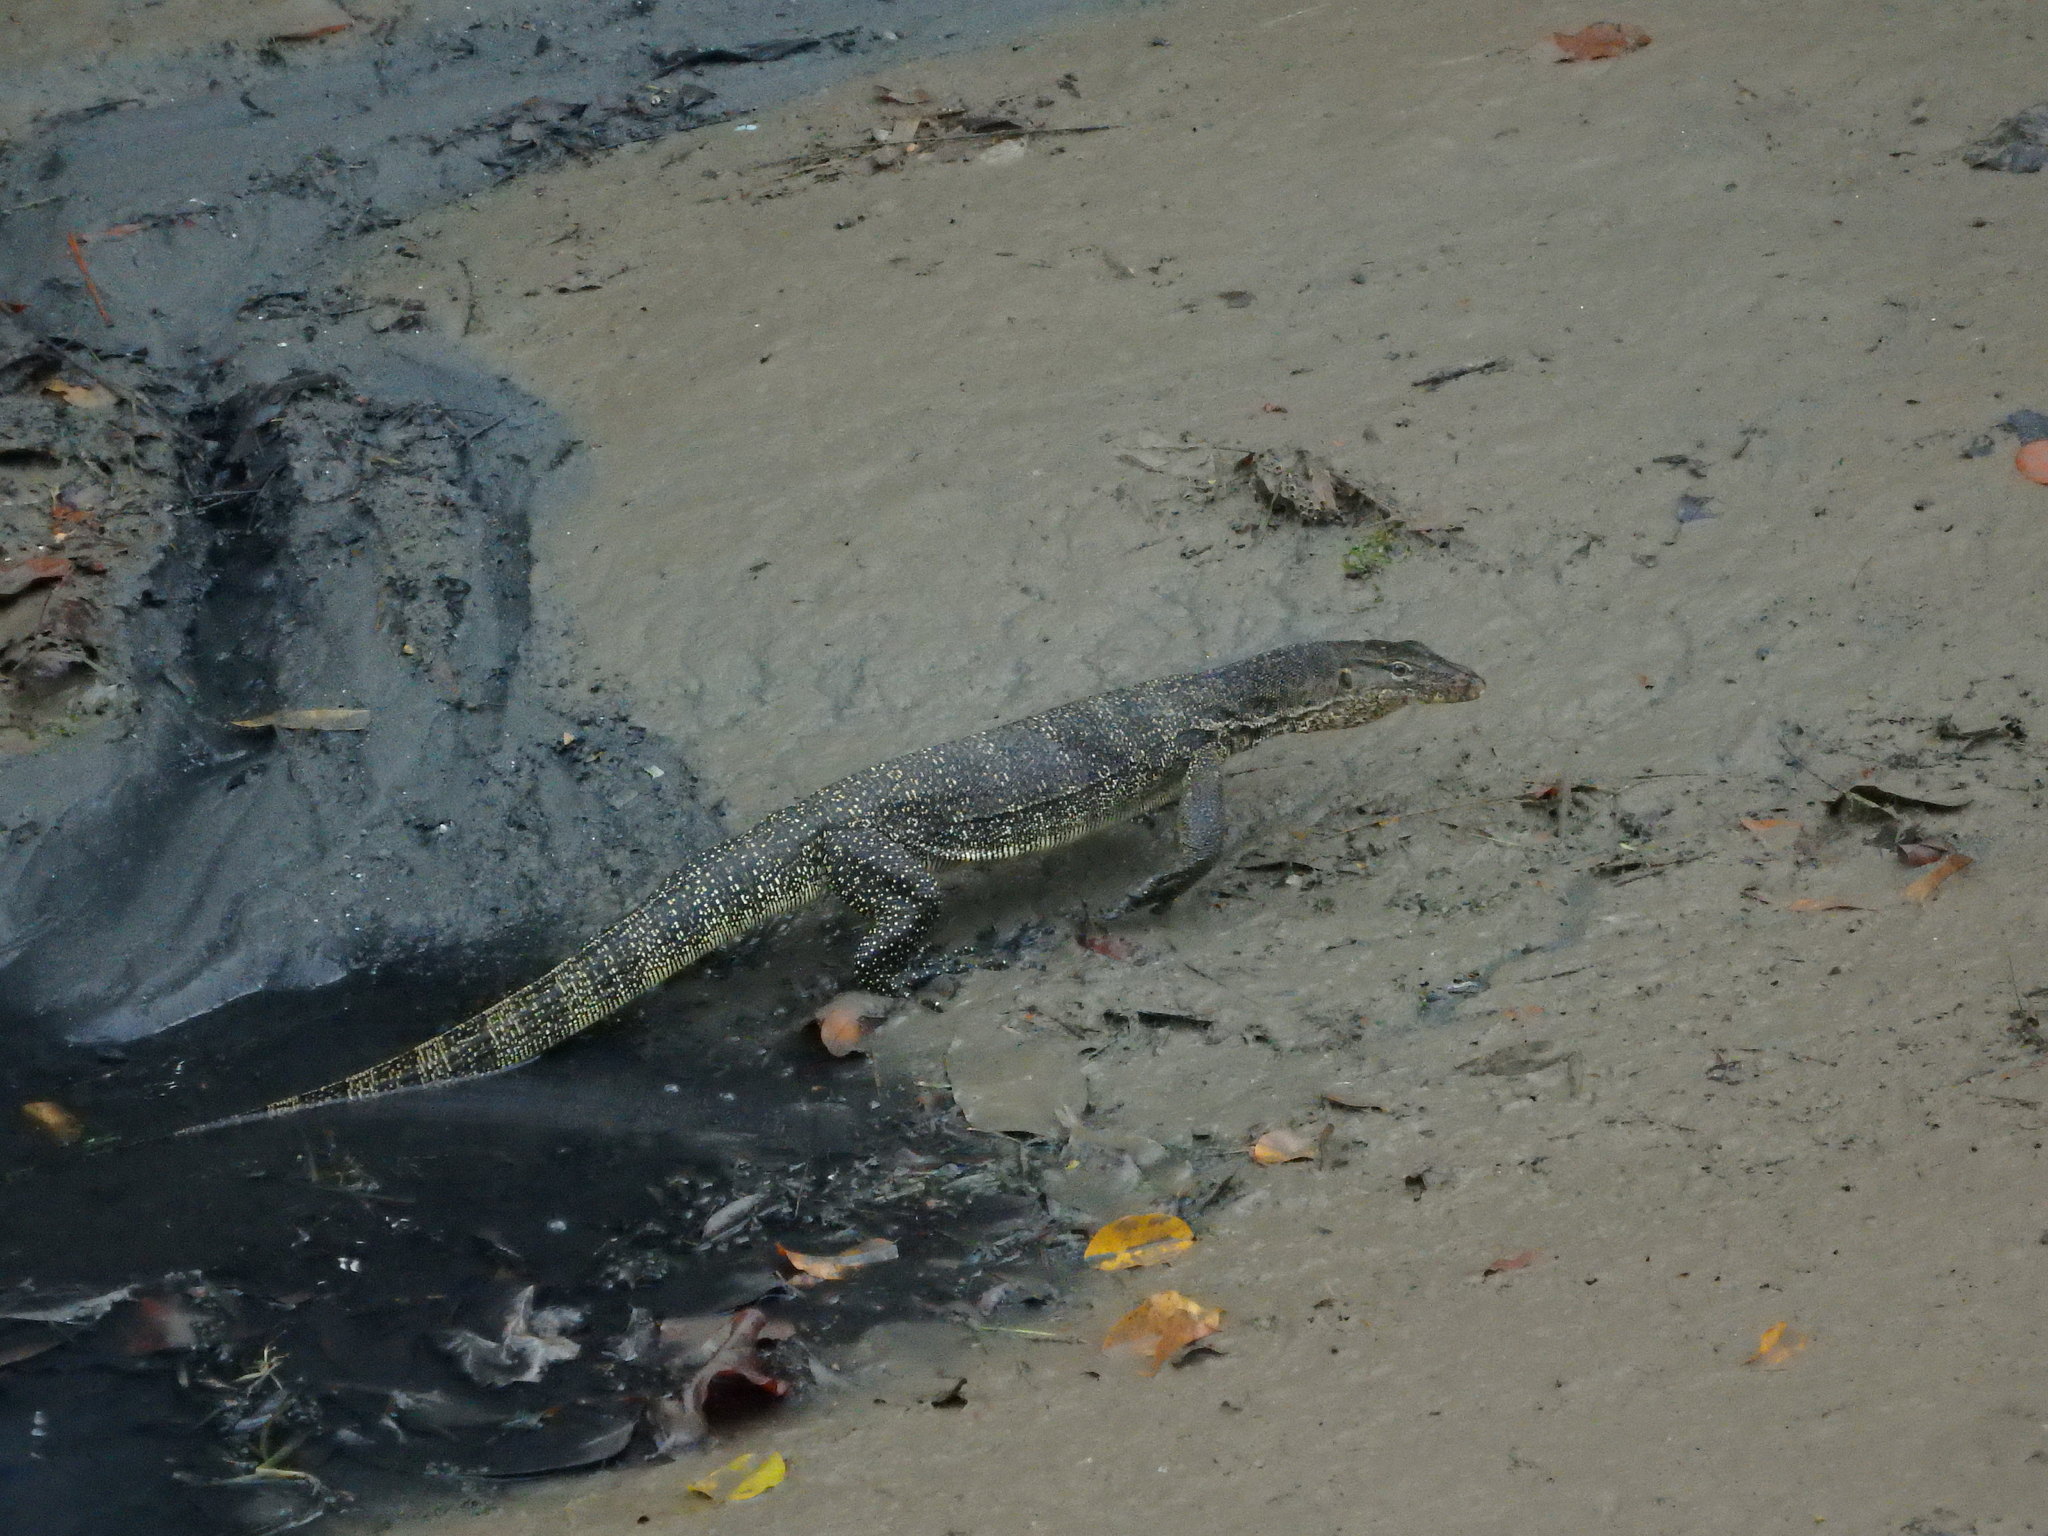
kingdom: Animalia
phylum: Chordata
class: Squamata
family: Varanidae
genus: Varanus
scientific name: Varanus salvator
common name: Common water monitor
